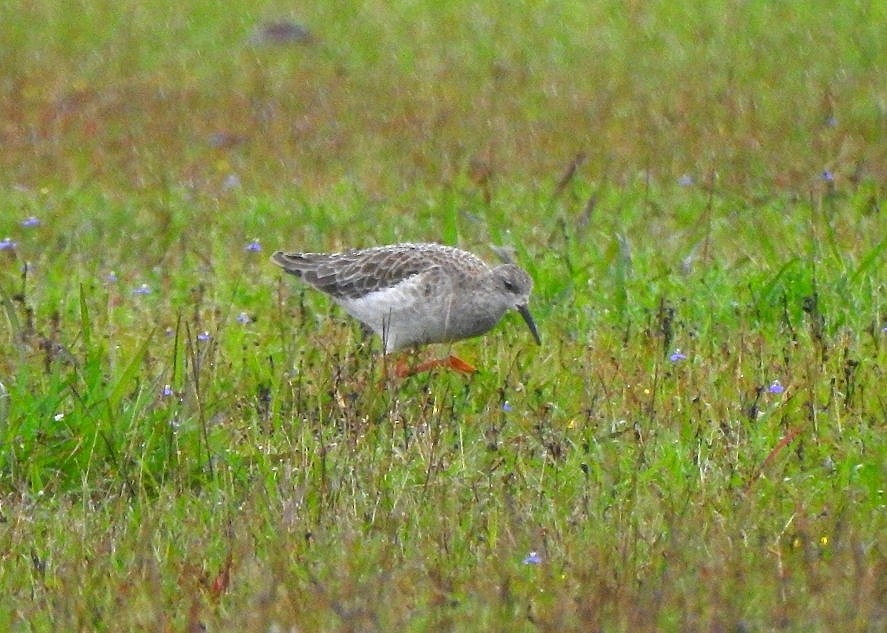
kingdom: Animalia
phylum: Chordata
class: Aves
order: Charadriiformes
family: Scolopacidae
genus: Calidris
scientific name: Calidris pugnax
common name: Ruff
